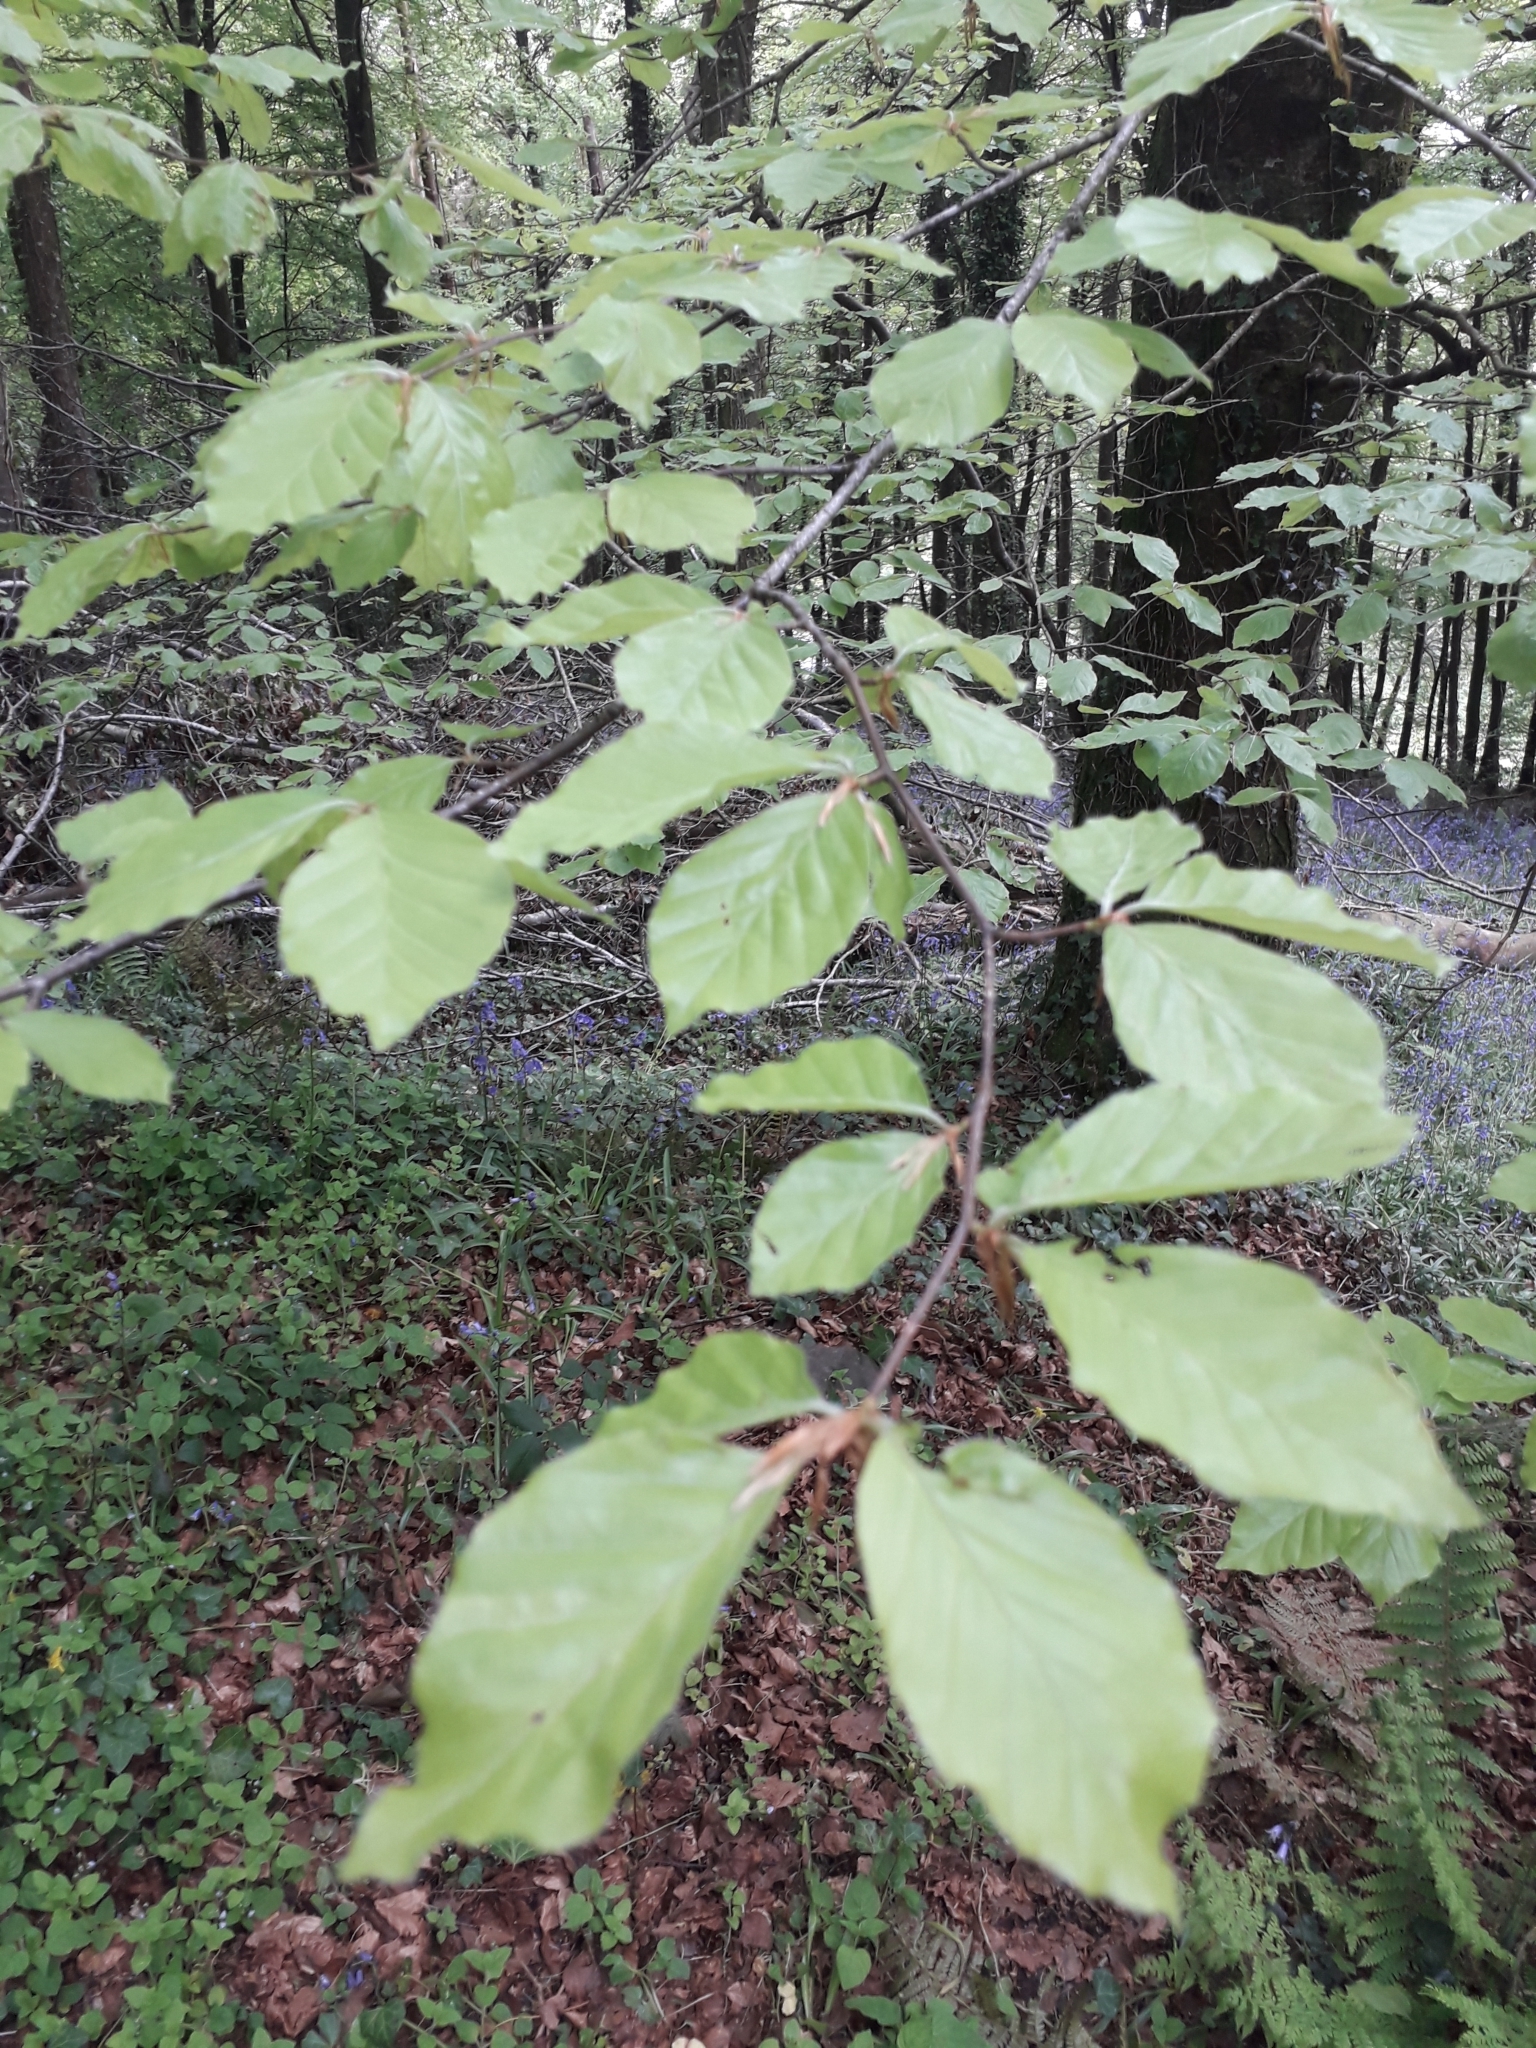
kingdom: Plantae
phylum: Tracheophyta
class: Magnoliopsida
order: Fagales
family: Fagaceae
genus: Fagus
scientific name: Fagus sylvatica
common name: Beech
